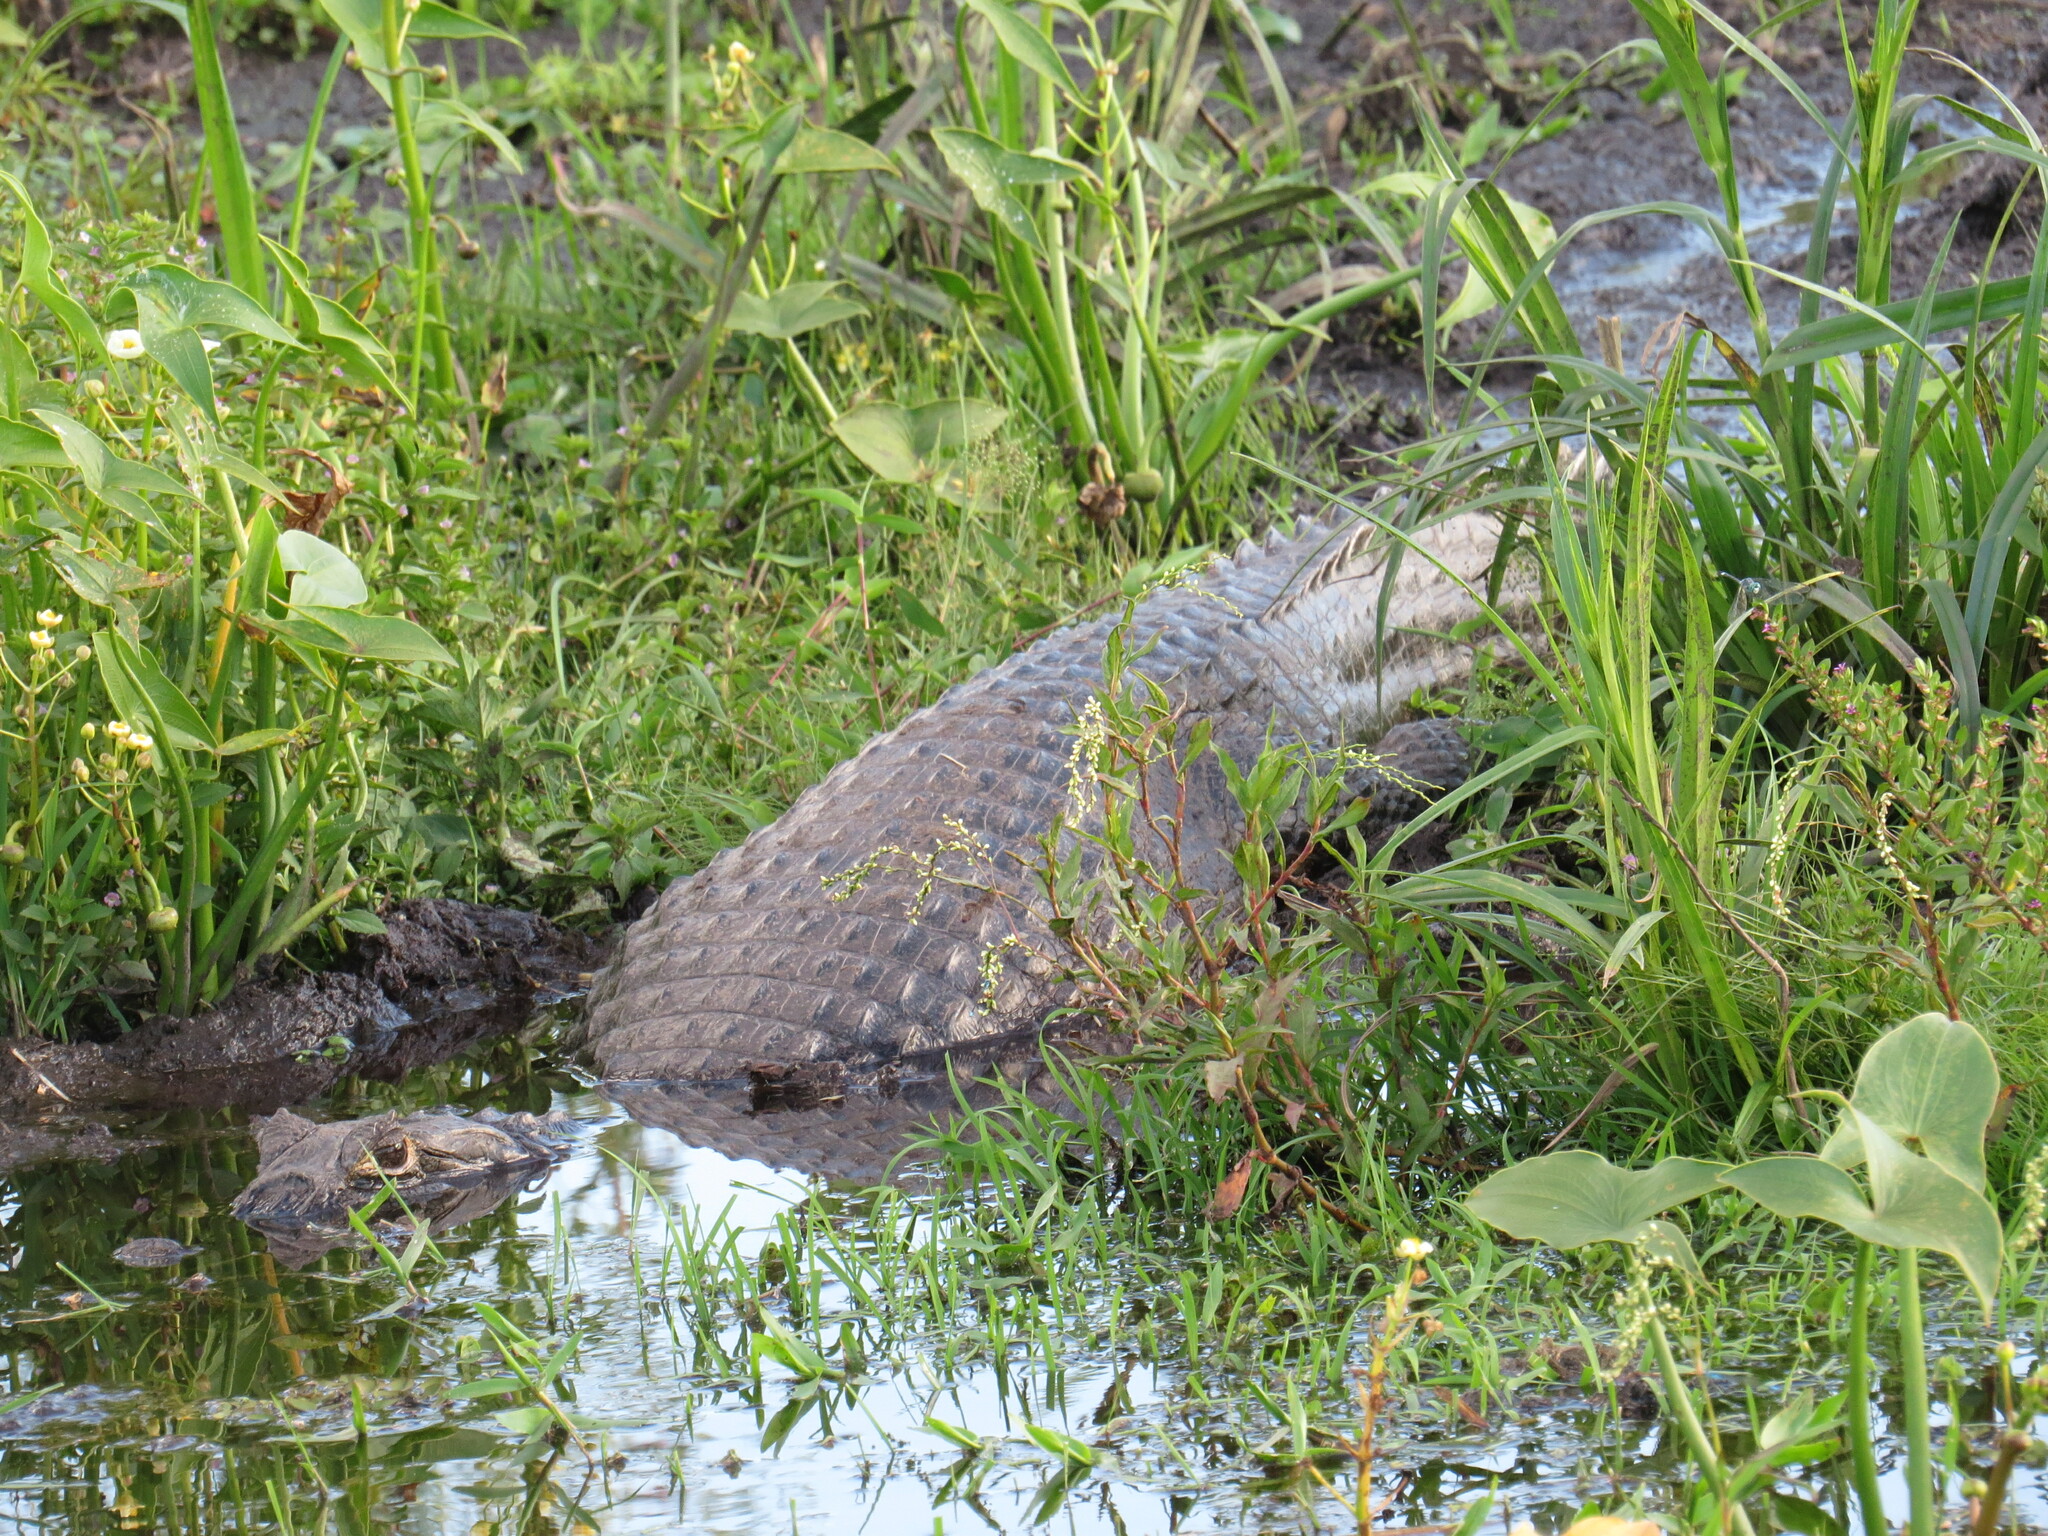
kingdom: Animalia
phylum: Chordata
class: Crocodylia
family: Alligatoridae
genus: Caiman
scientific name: Caiman latirostris
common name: Broad-snouted caiman
